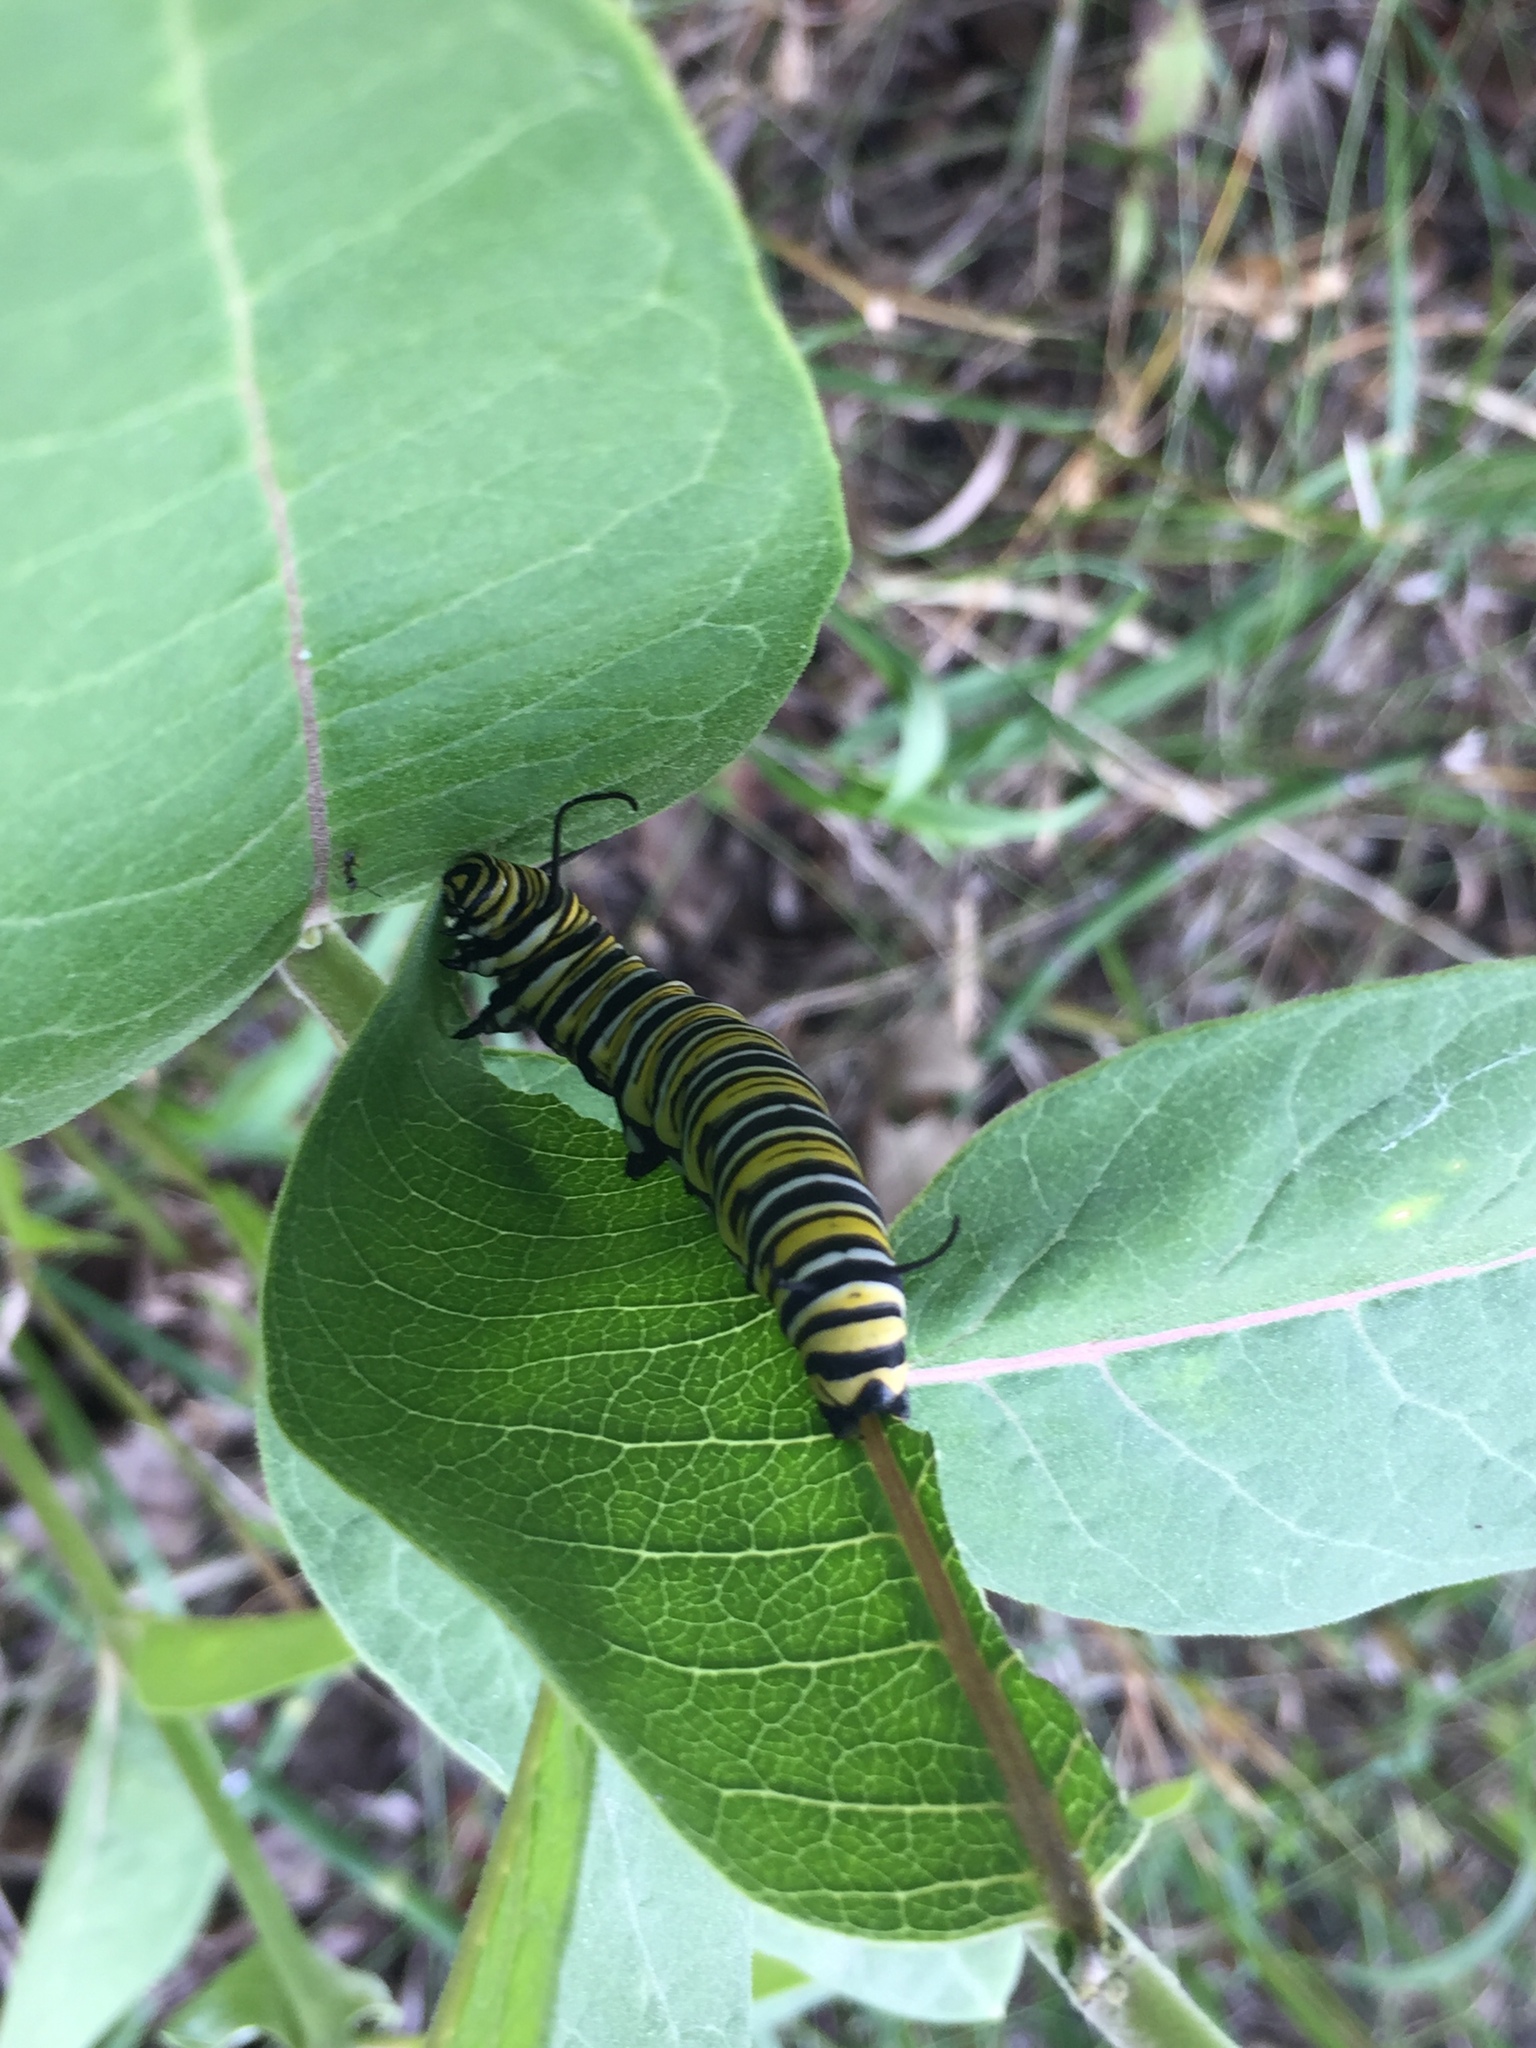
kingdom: Animalia
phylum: Arthropoda
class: Insecta
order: Lepidoptera
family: Nymphalidae
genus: Danaus
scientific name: Danaus plexippus
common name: Monarch
